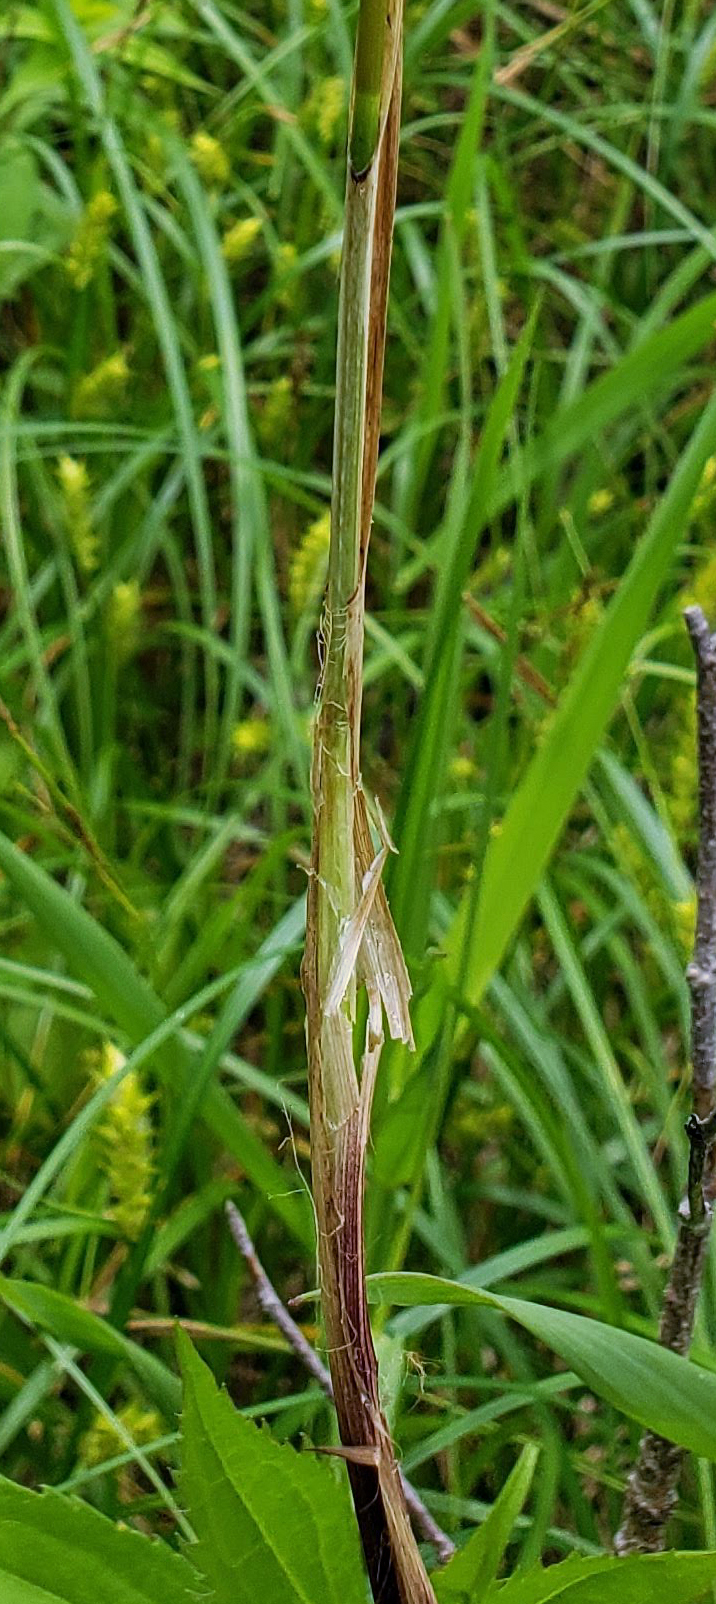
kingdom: Plantae
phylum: Tracheophyta
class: Liliopsida
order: Poales
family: Cyperaceae
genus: Carex
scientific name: Carex trichocarpa
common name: Hairy-fruited lake sedge
